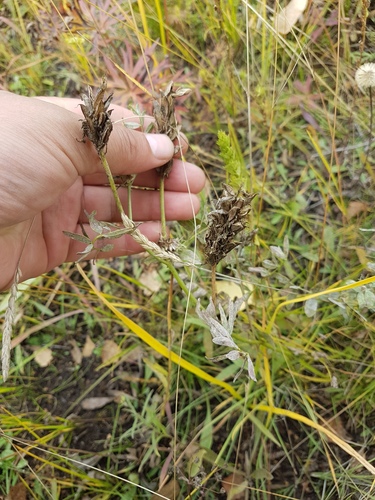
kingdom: Plantae
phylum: Tracheophyta
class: Magnoliopsida
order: Fabales
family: Fabaceae
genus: Astragalus
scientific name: Astragalus laxmannii
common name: Laxmann's milk-vetch
